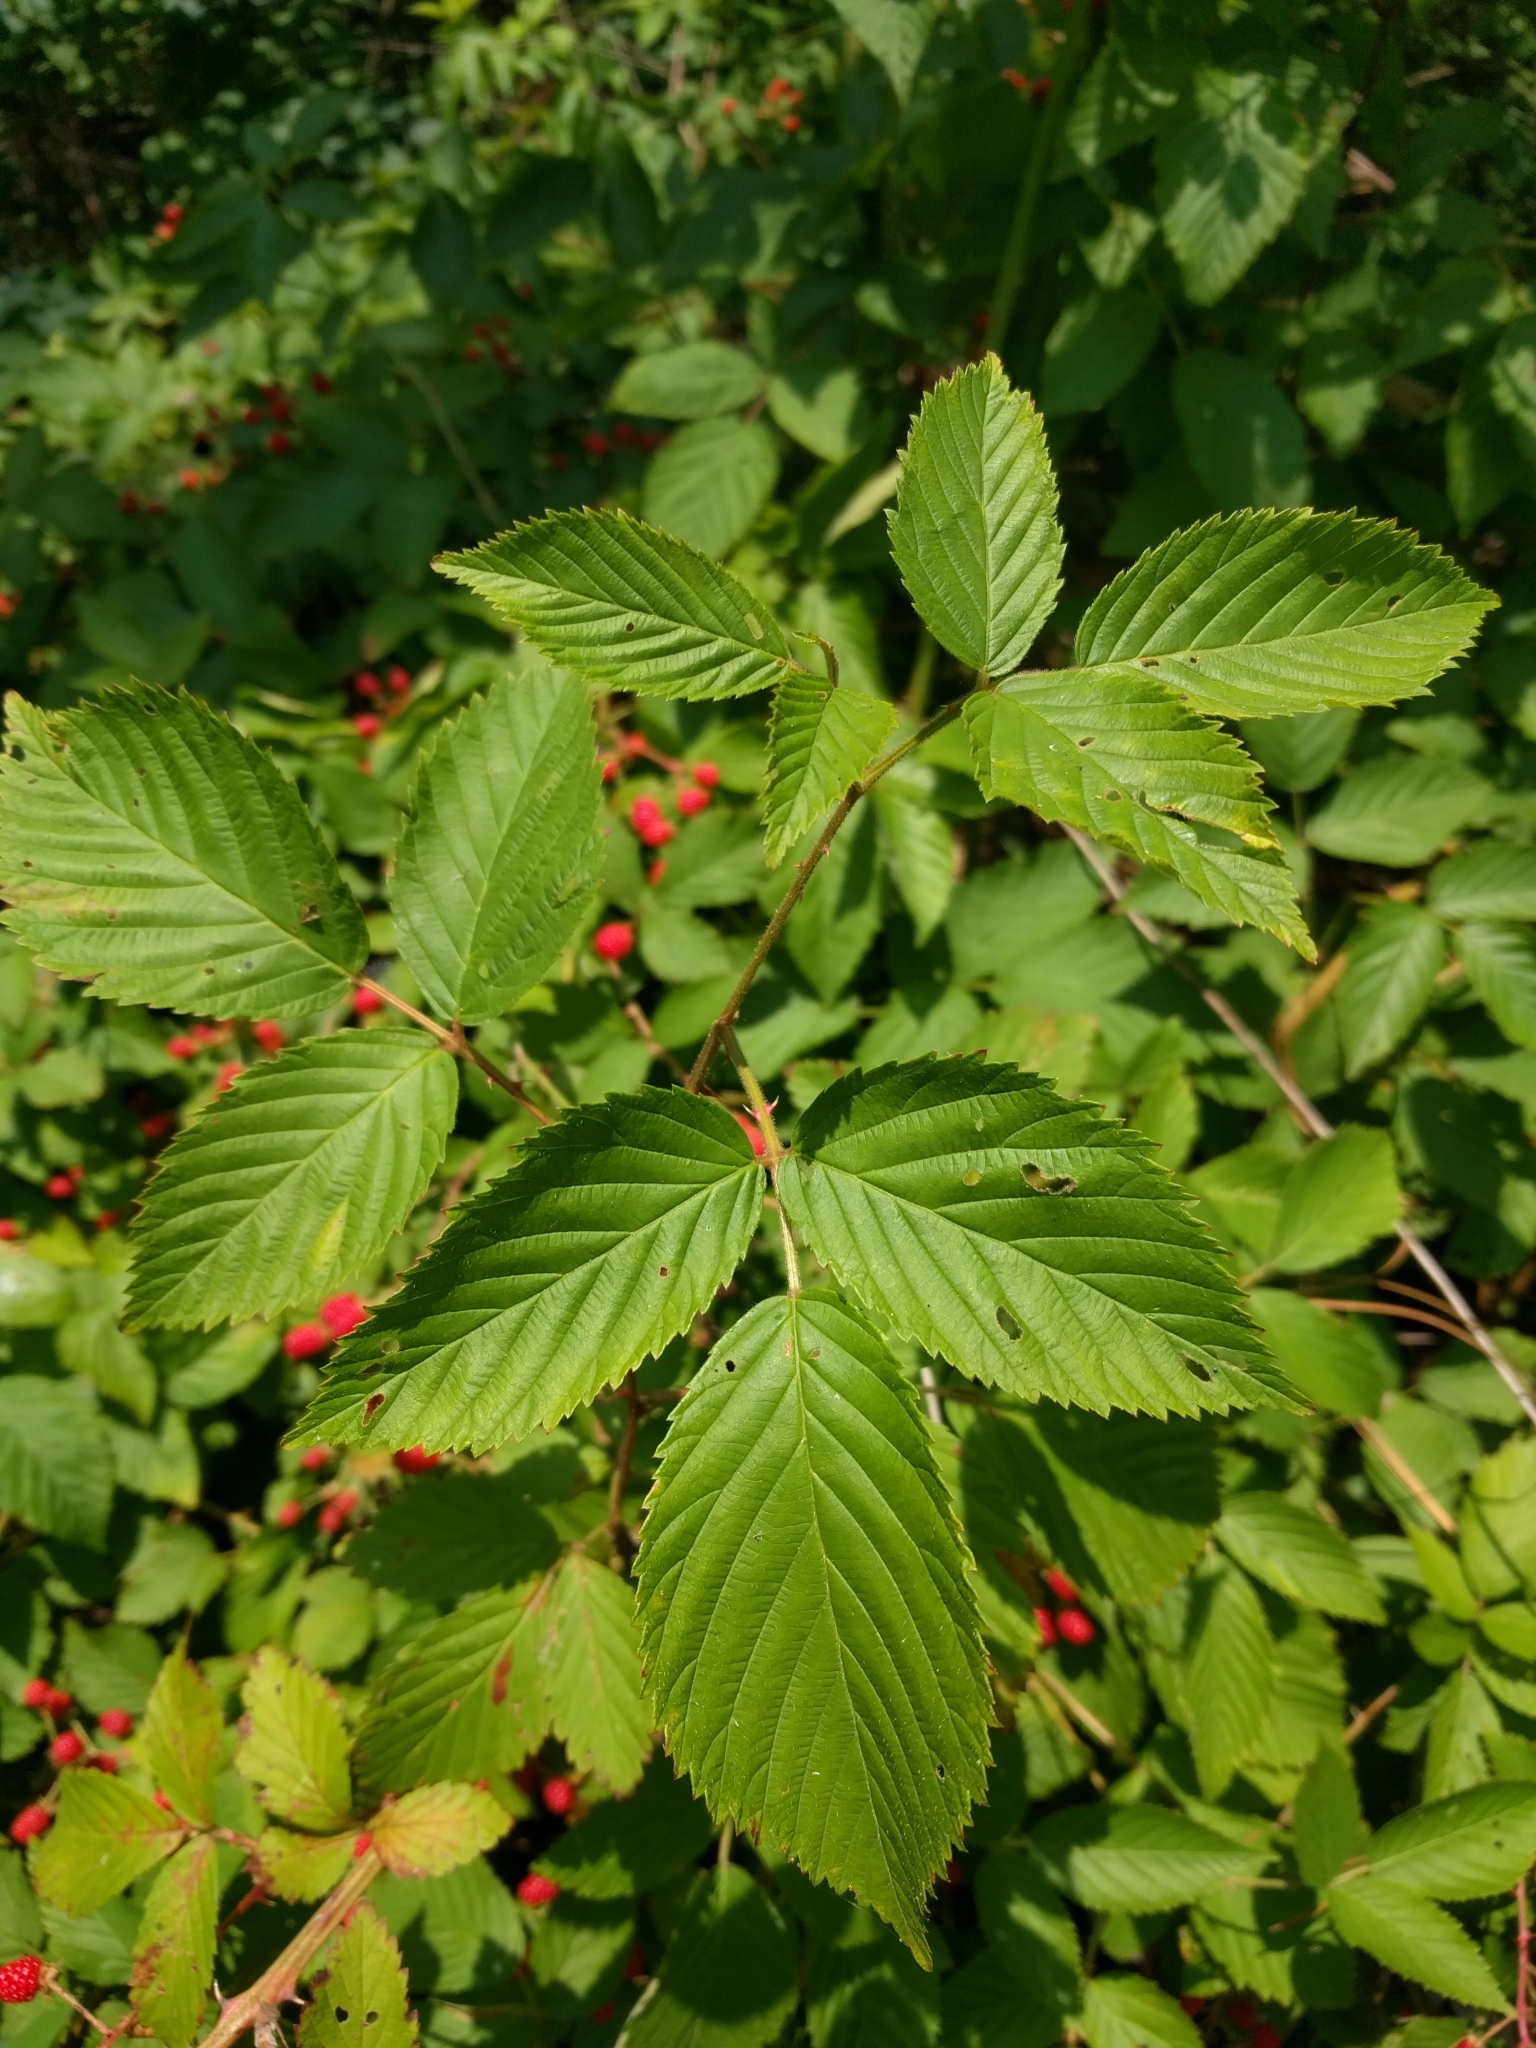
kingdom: Plantae
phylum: Tracheophyta
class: Magnoliopsida
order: Rosales
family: Rosaceae
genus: Rubus
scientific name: Rubus pensilvanicus
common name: Pennsylvania blackberry
